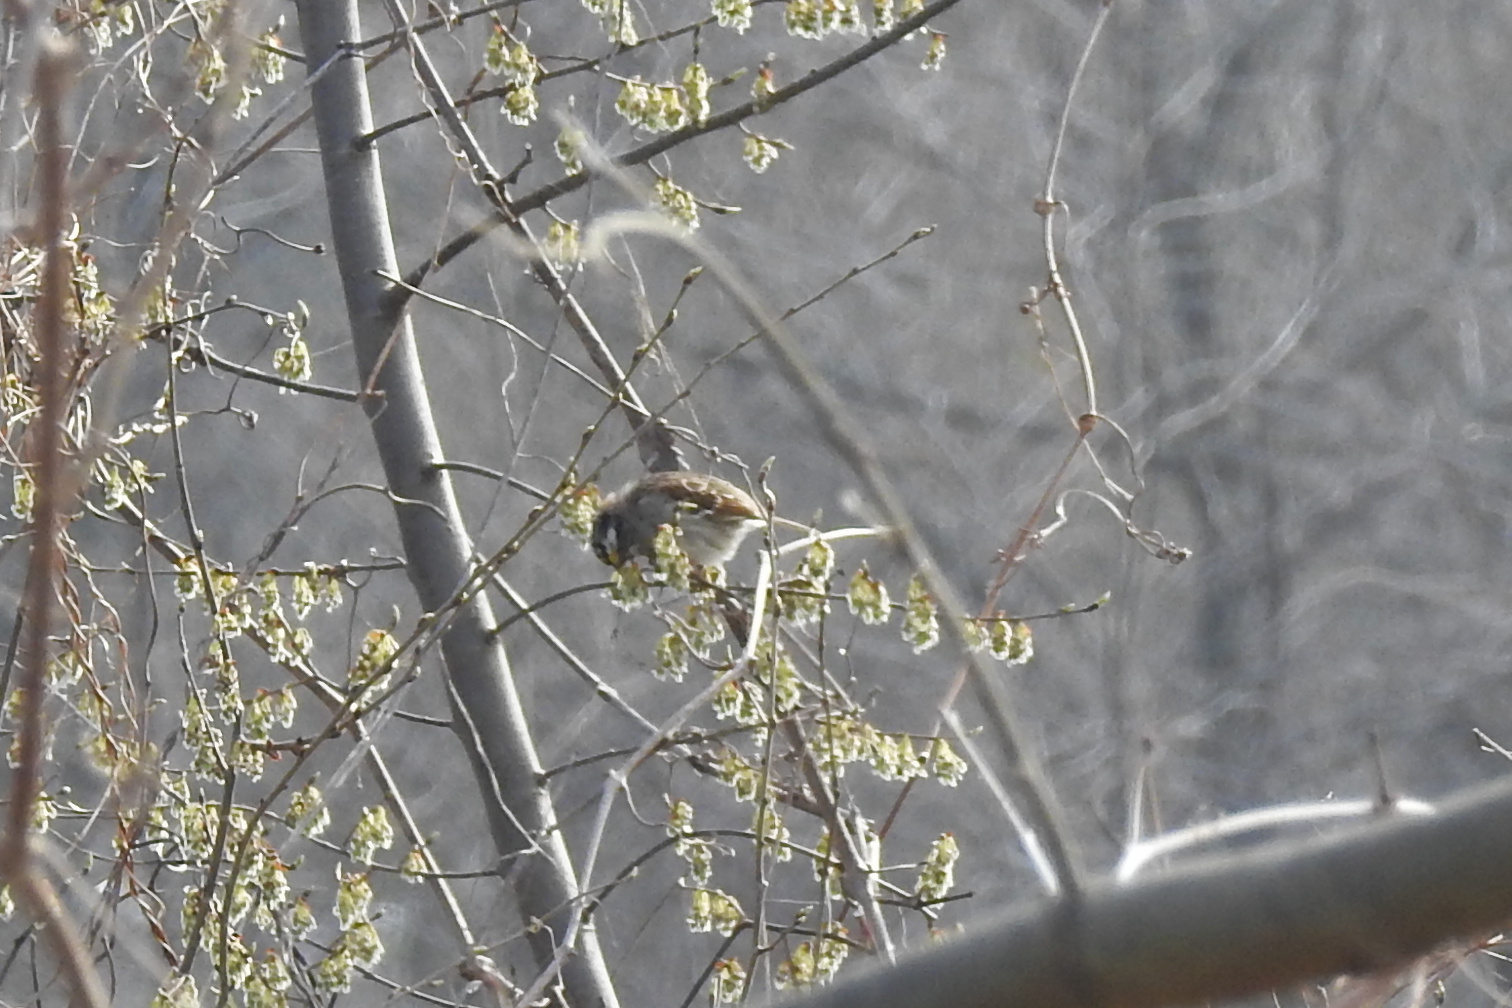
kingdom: Animalia
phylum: Chordata
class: Aves
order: Passeriformes
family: Passerellidae
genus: Zonotrichia
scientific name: Zonotrichia albicollis
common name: White-throated sparrow
